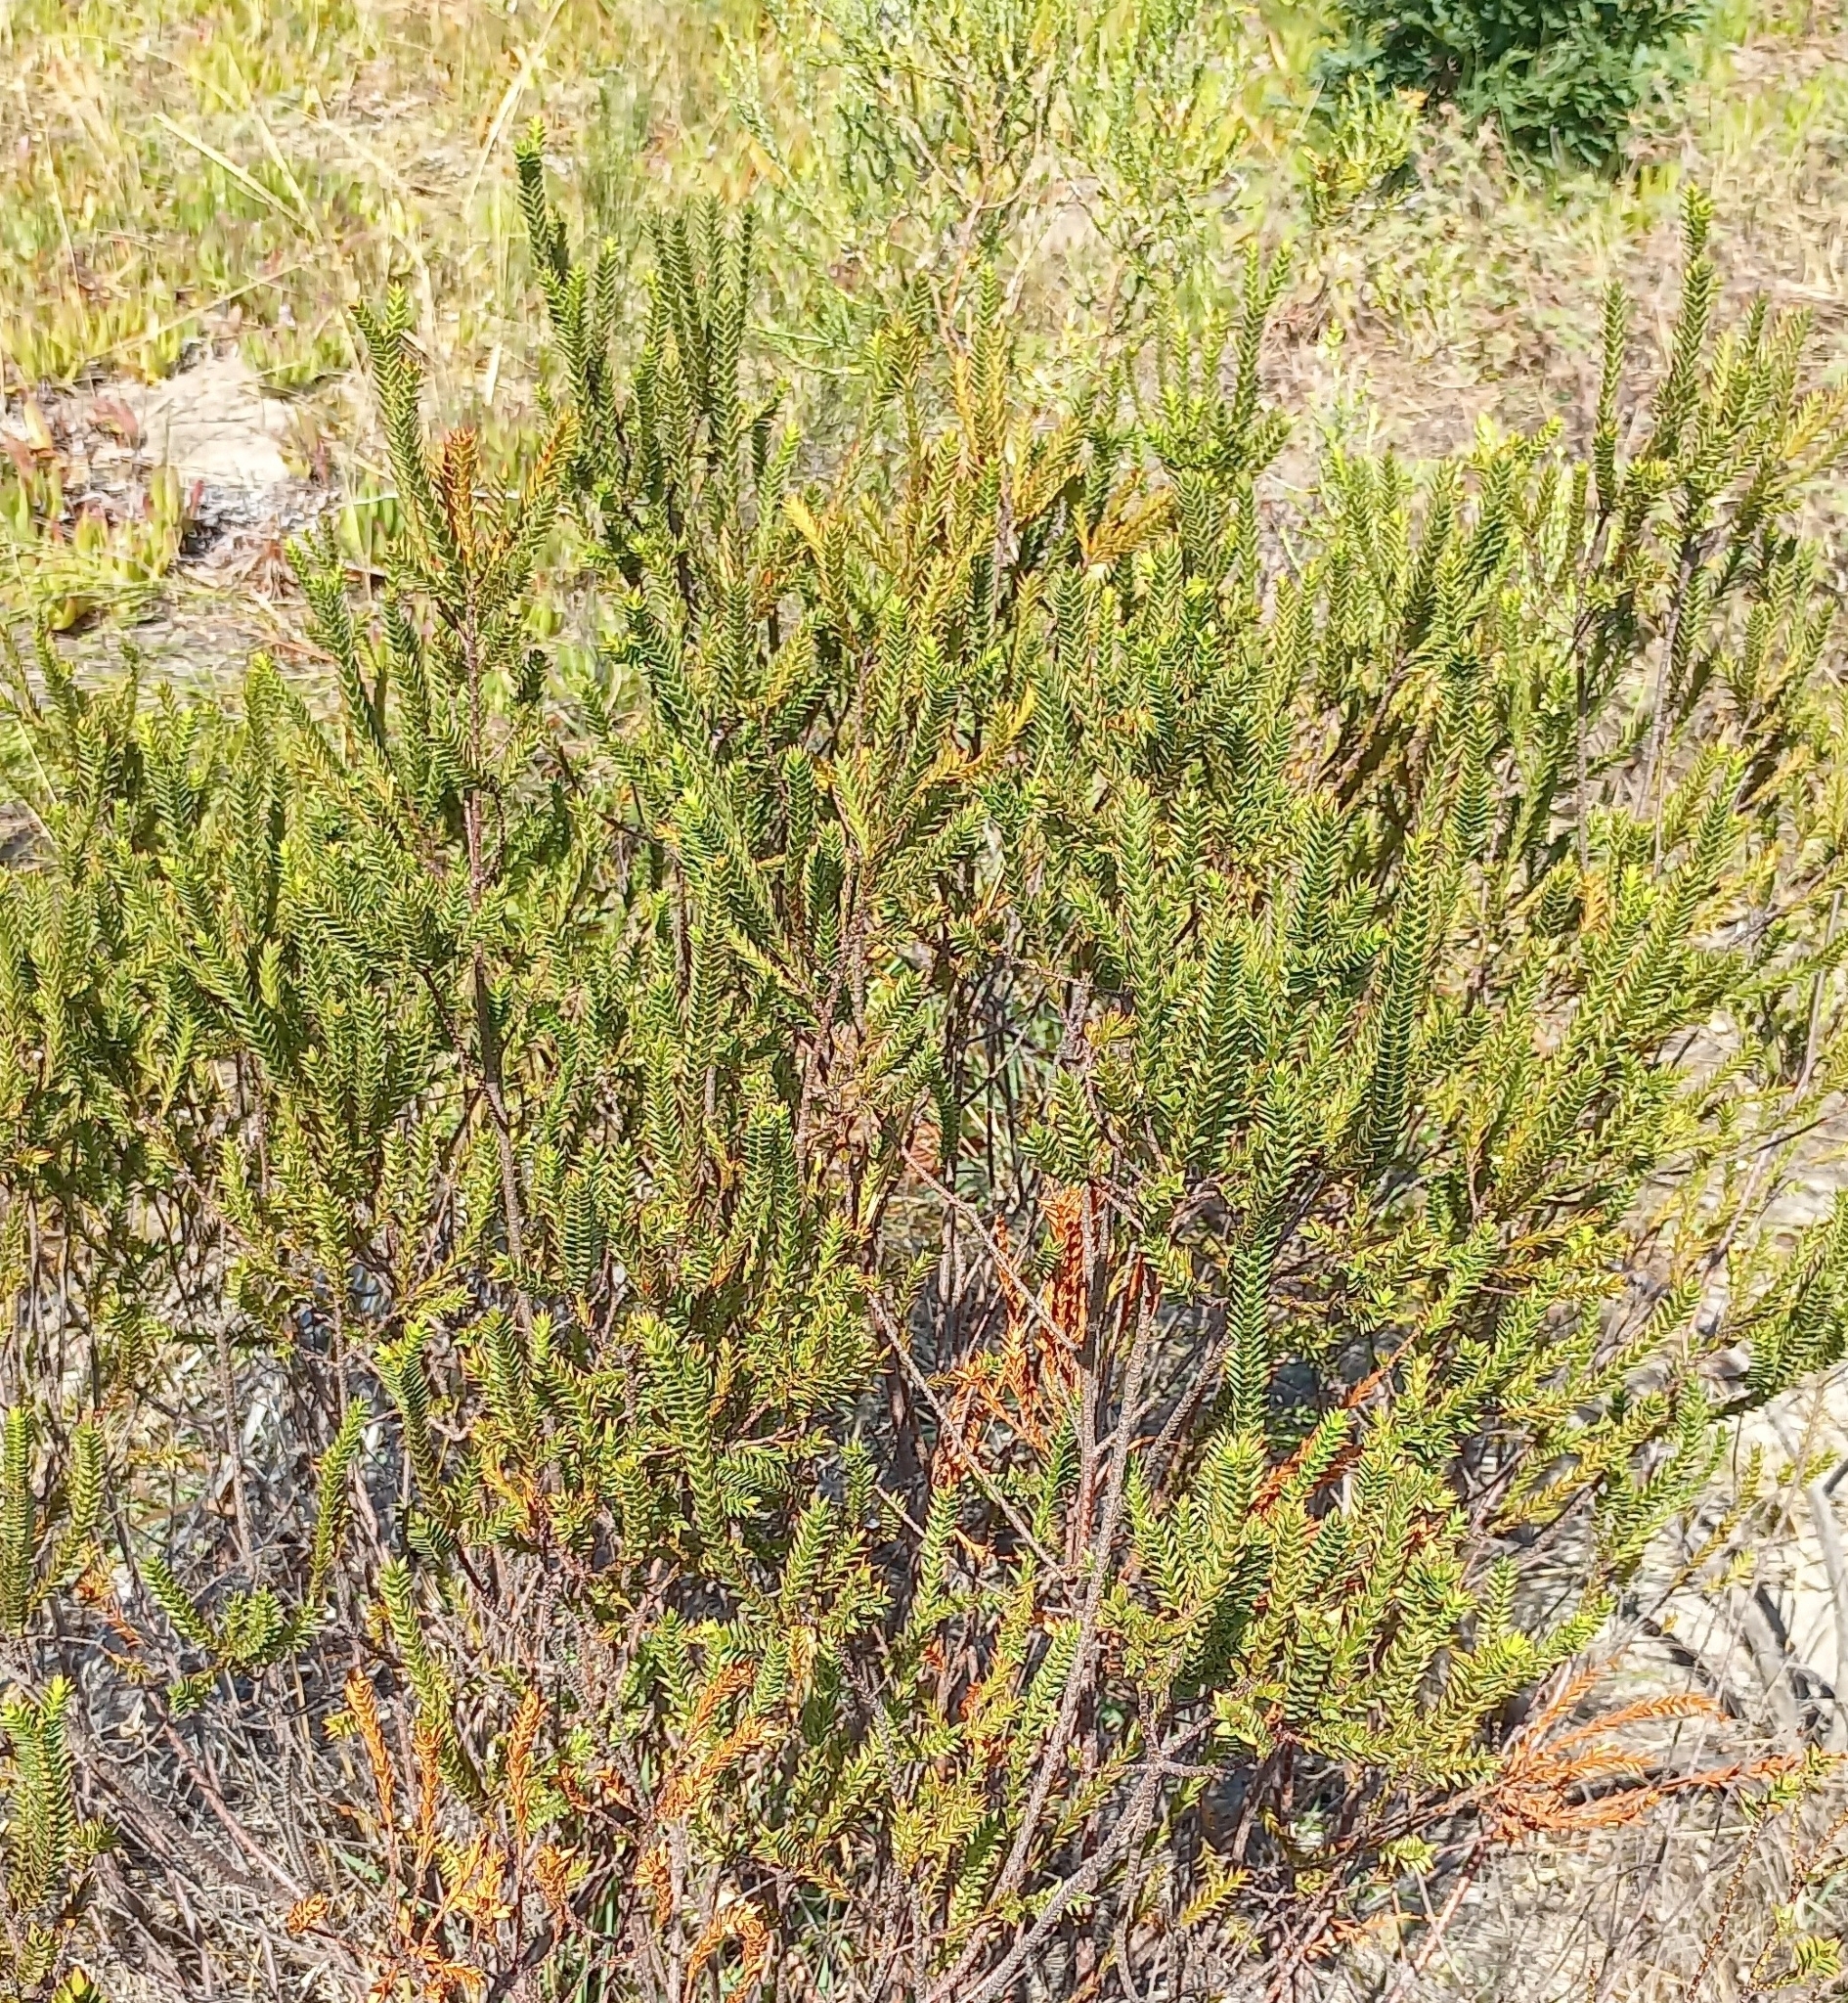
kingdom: Plantae
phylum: Tracheophyta
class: Magnoliopsida
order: Malvales
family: Thymelaeaceae
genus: Struthiola
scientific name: Struthiola striata
